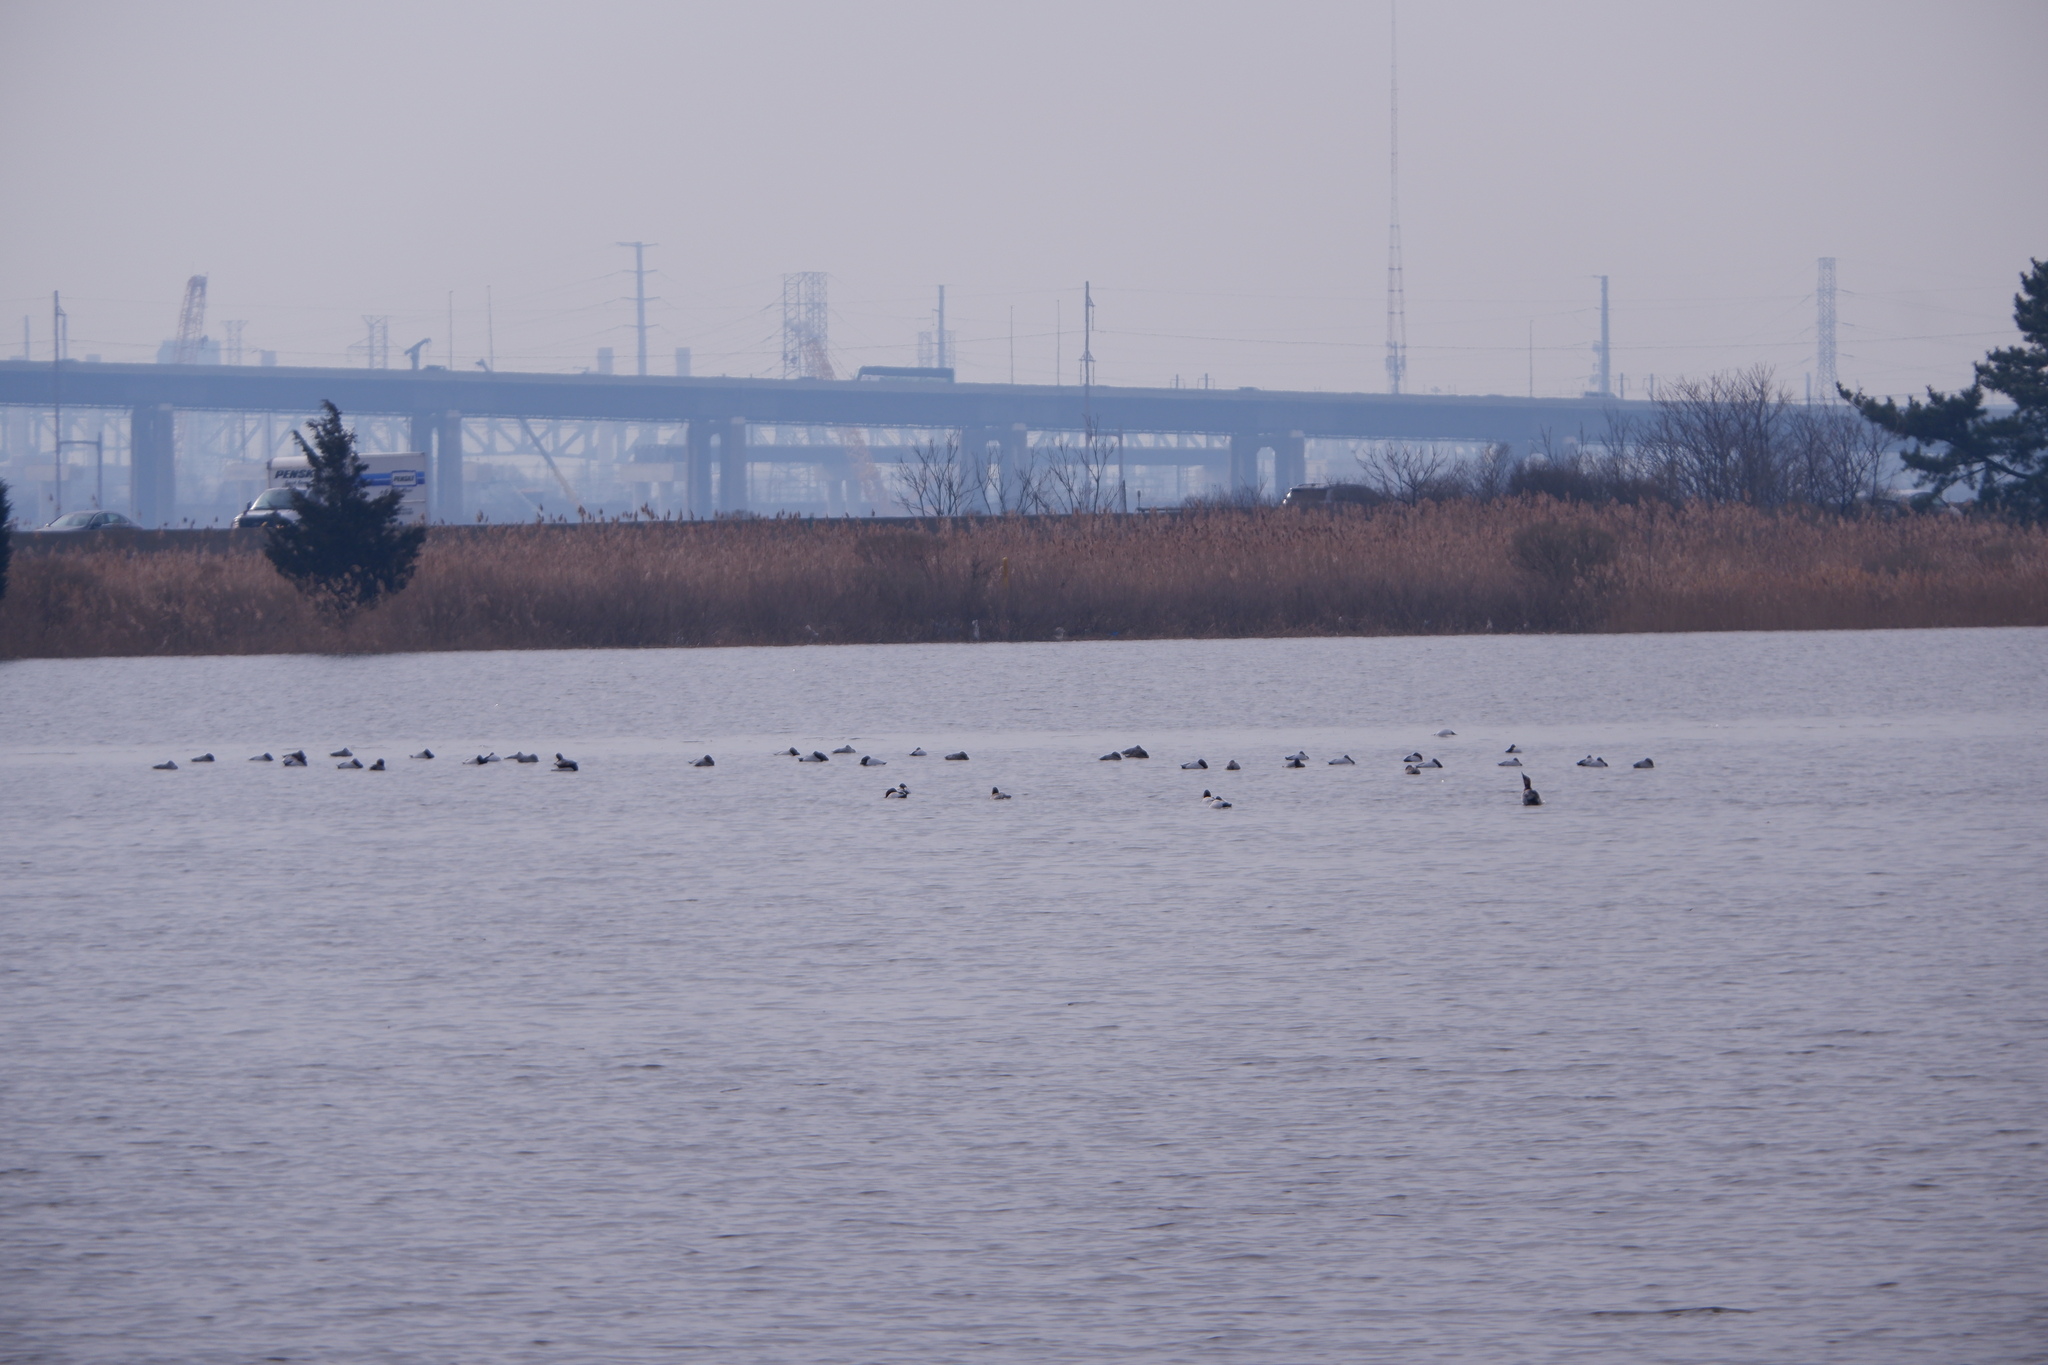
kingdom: Animalia
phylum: Chordata
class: Aves
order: Anseriformes
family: Anatidae
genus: Aythya
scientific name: Aythya valisineria
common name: Canvasback
